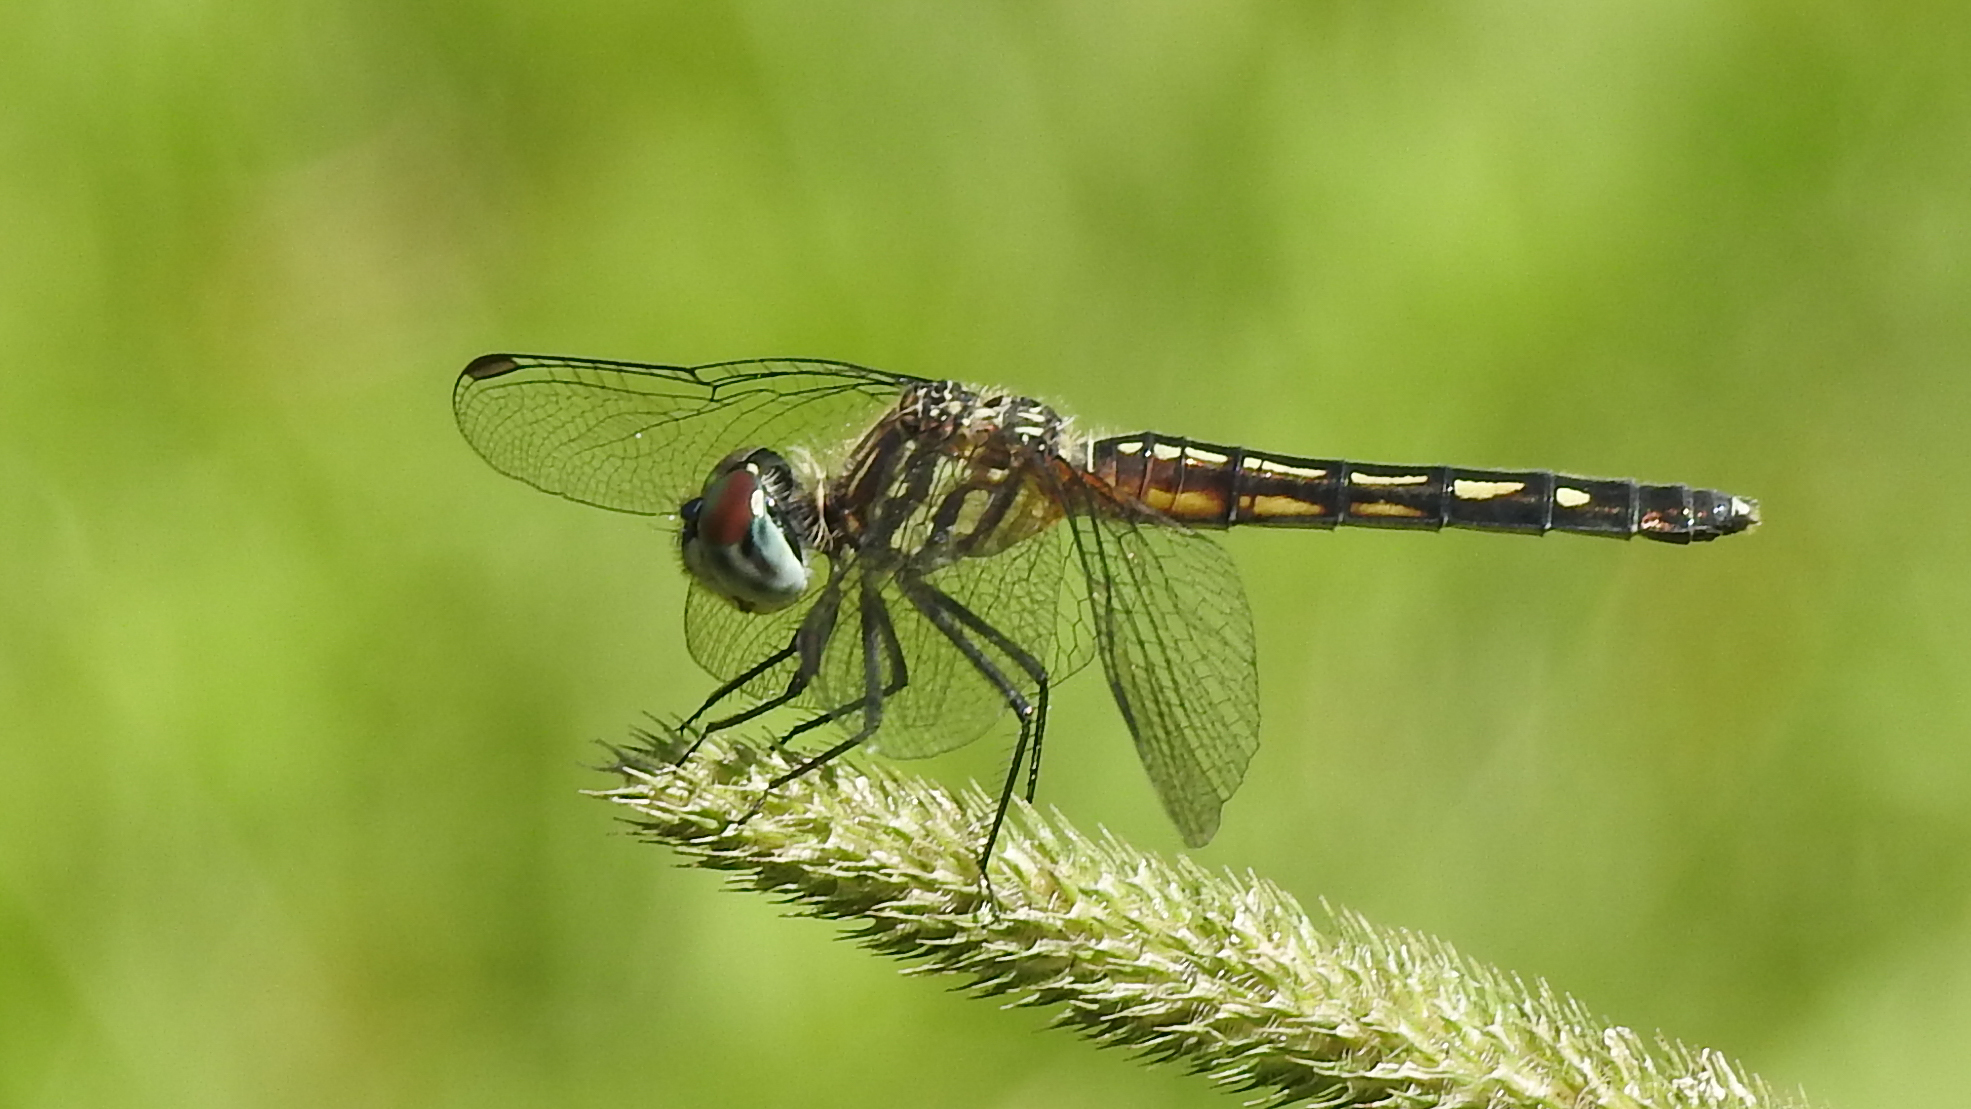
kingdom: Animalia
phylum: Arthropoda
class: Insecta
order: Odonata
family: Libellulidae
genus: Pachydiplax
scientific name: Pachydiplax longipennis
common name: Blue dasher
